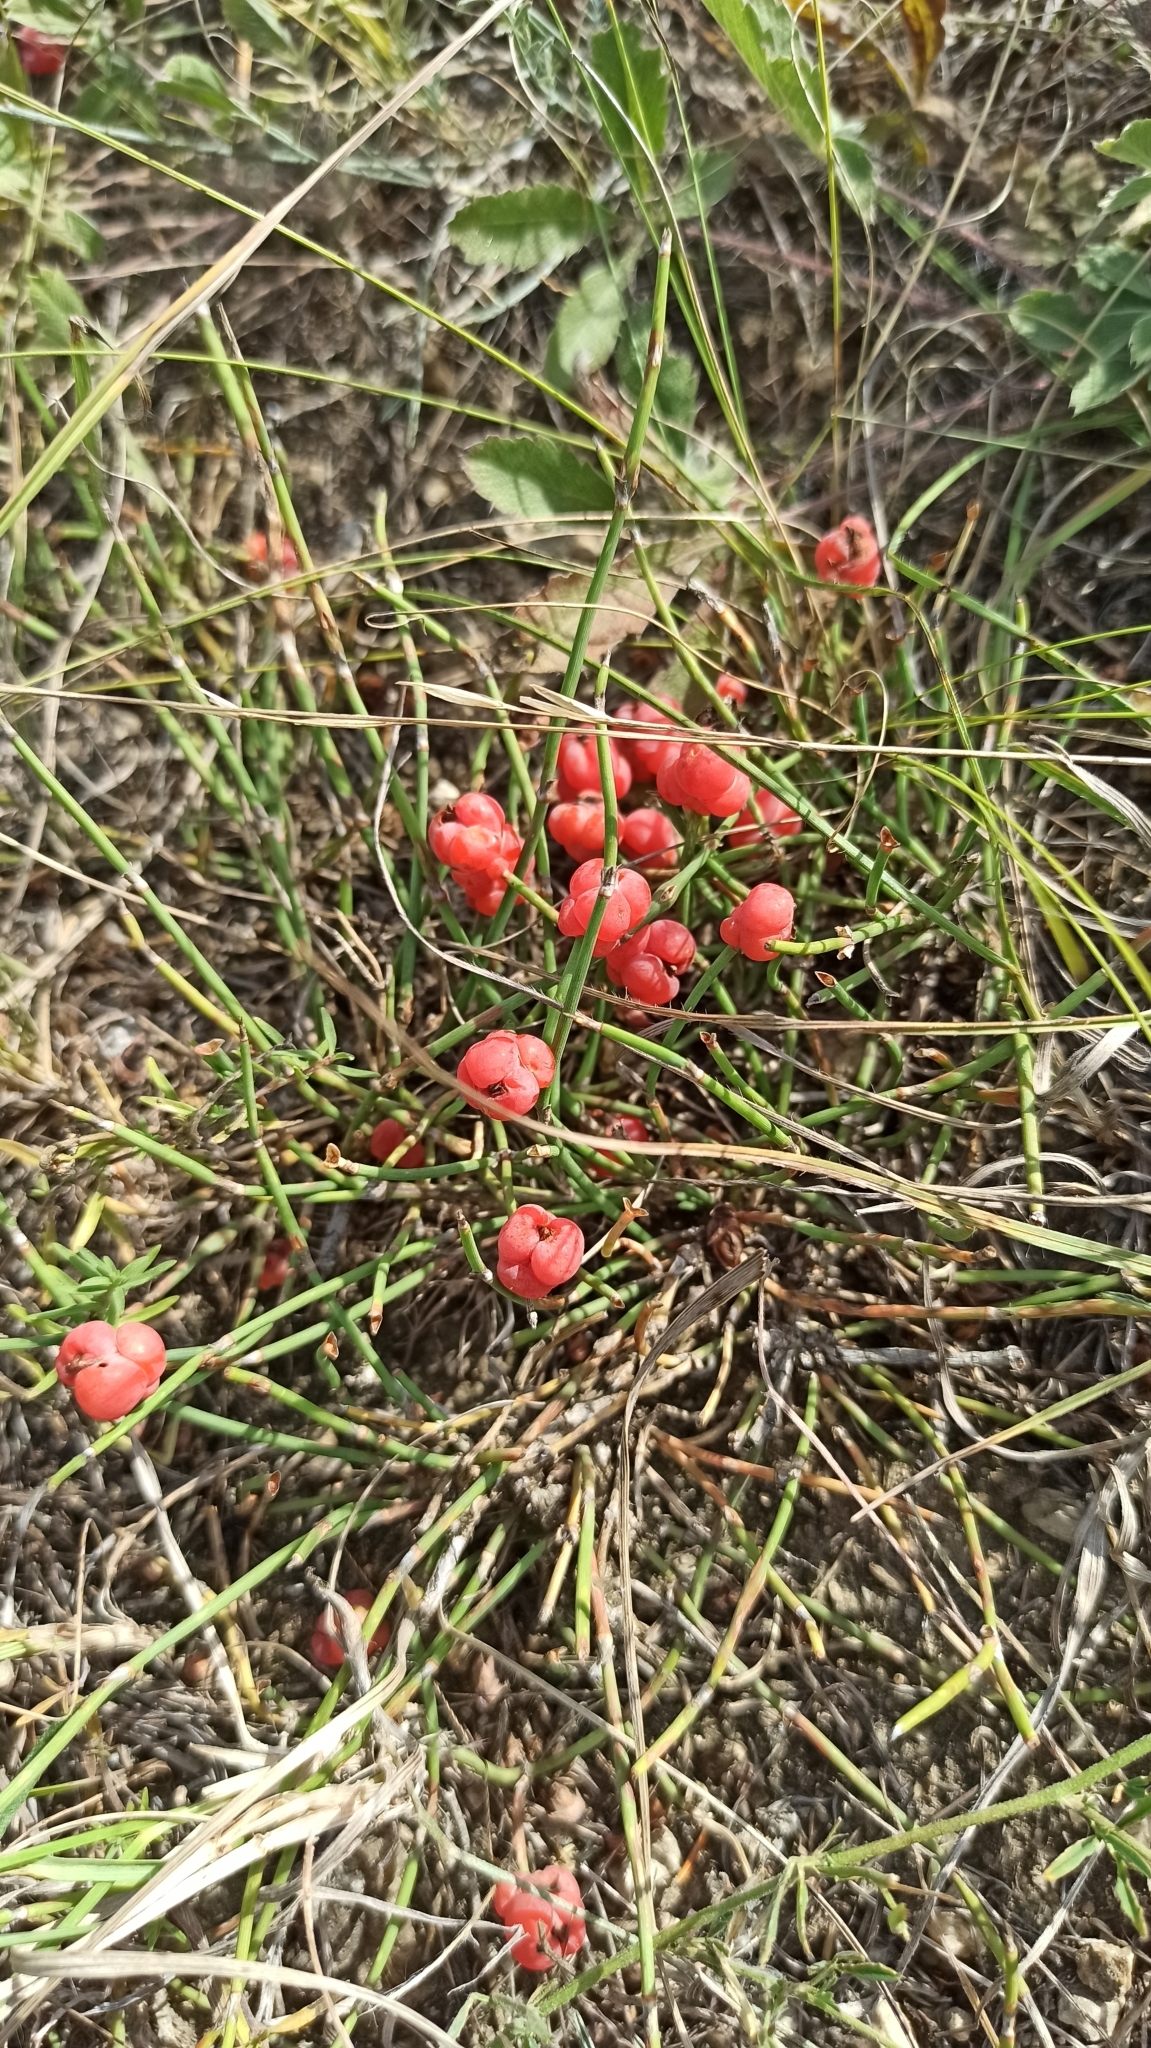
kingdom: Plantae
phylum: Tracheophyta
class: Gnetopsida
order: Ephedrales
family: Ephedraceae
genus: Ephedra
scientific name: Ephedra distachya
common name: Sea grape
